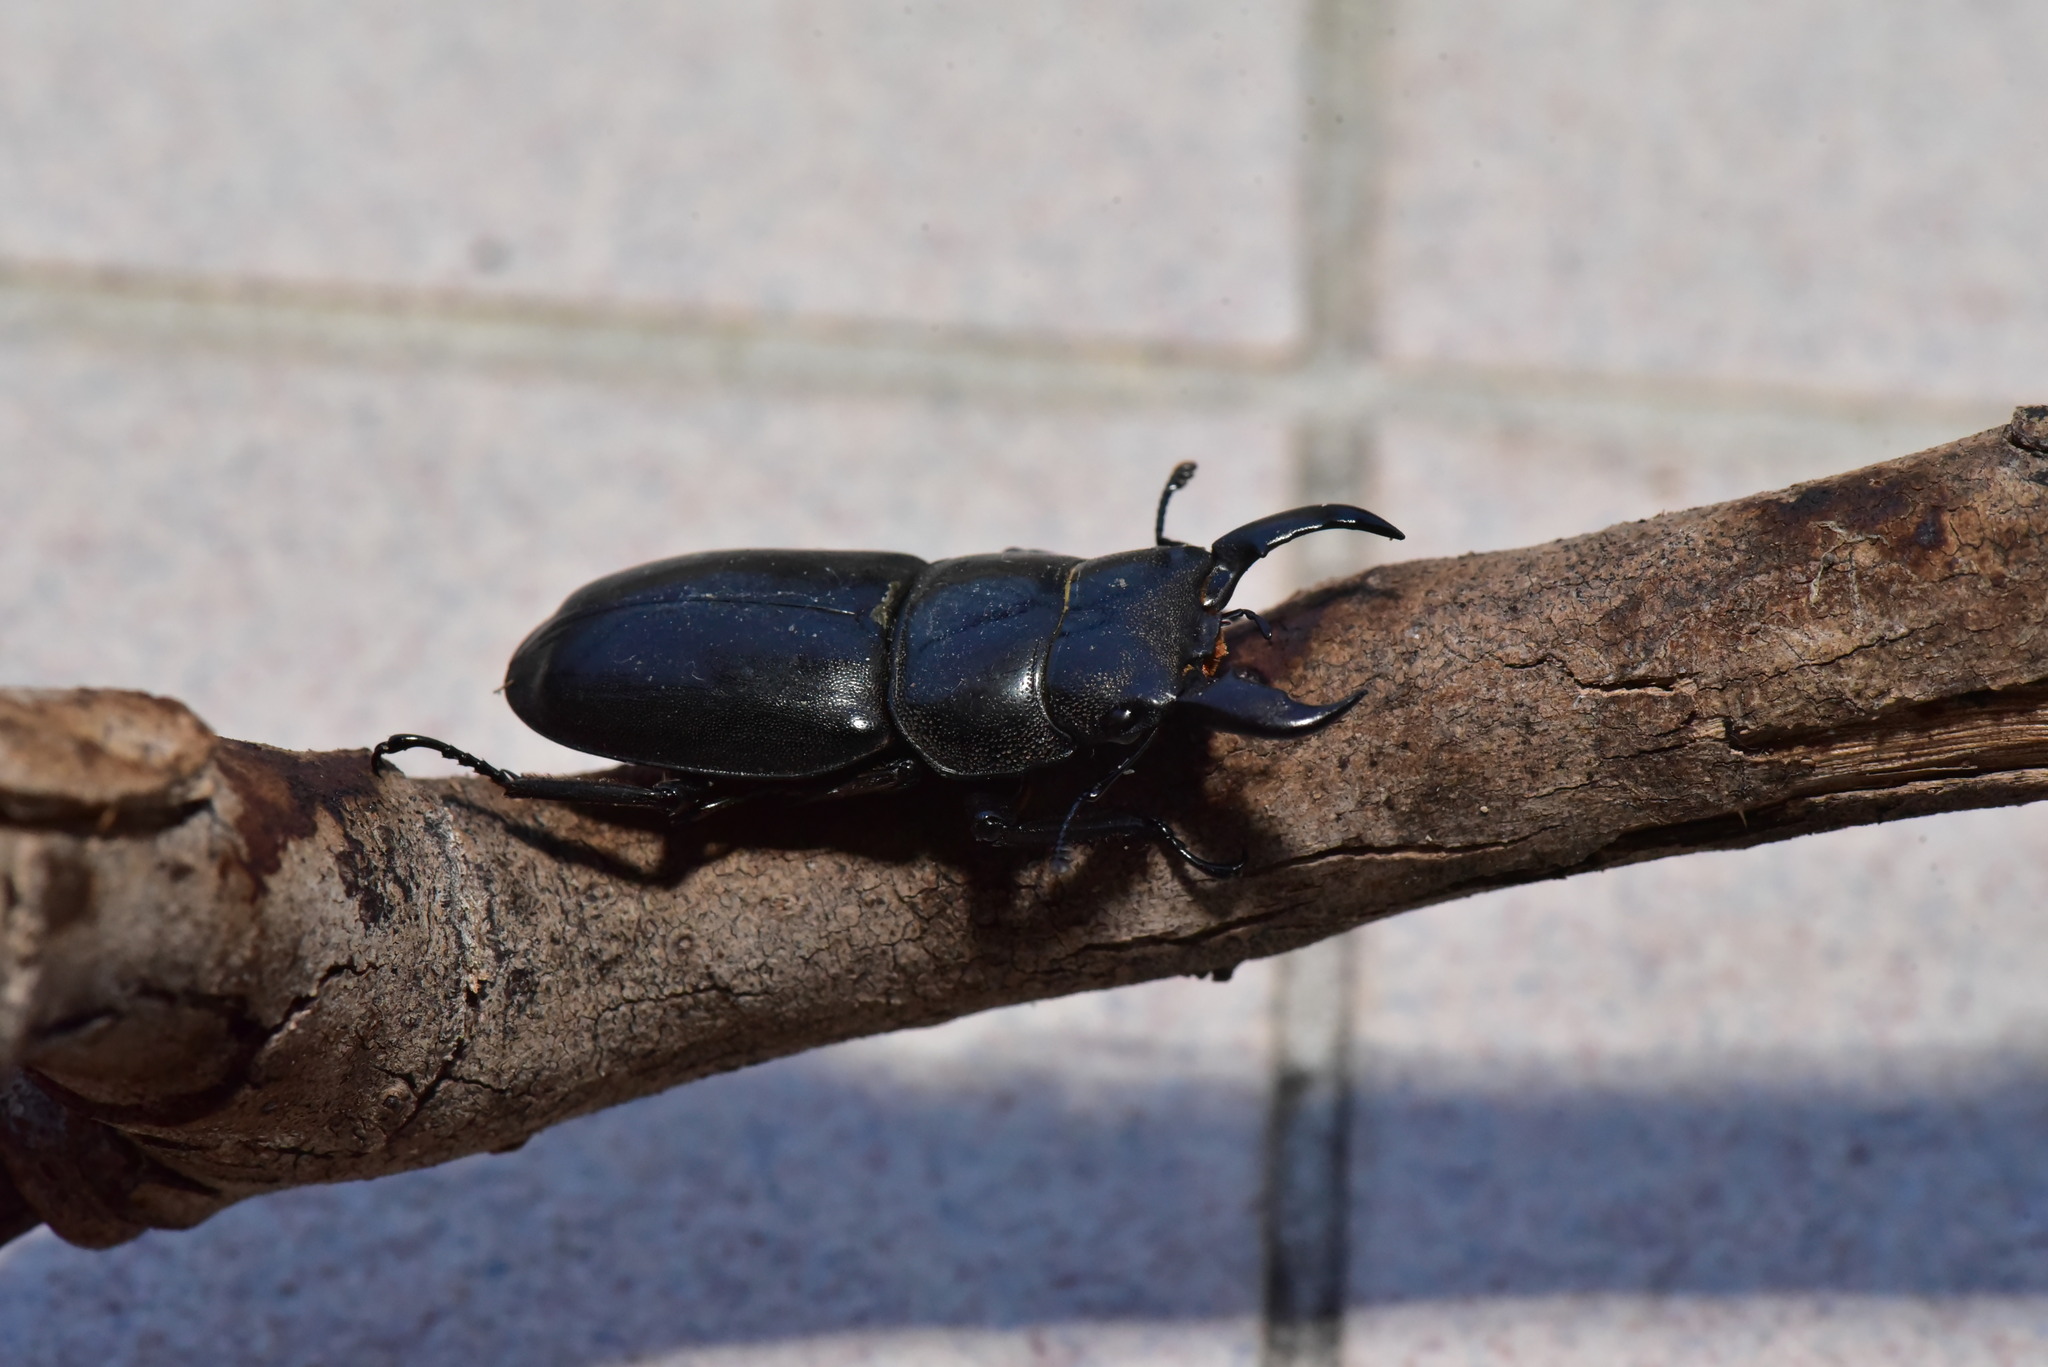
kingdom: Animalia
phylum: Arthropoda
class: Insecta
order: Coleoptera
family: Lucanidae
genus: Serrognathus
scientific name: Serrognathus titanus
